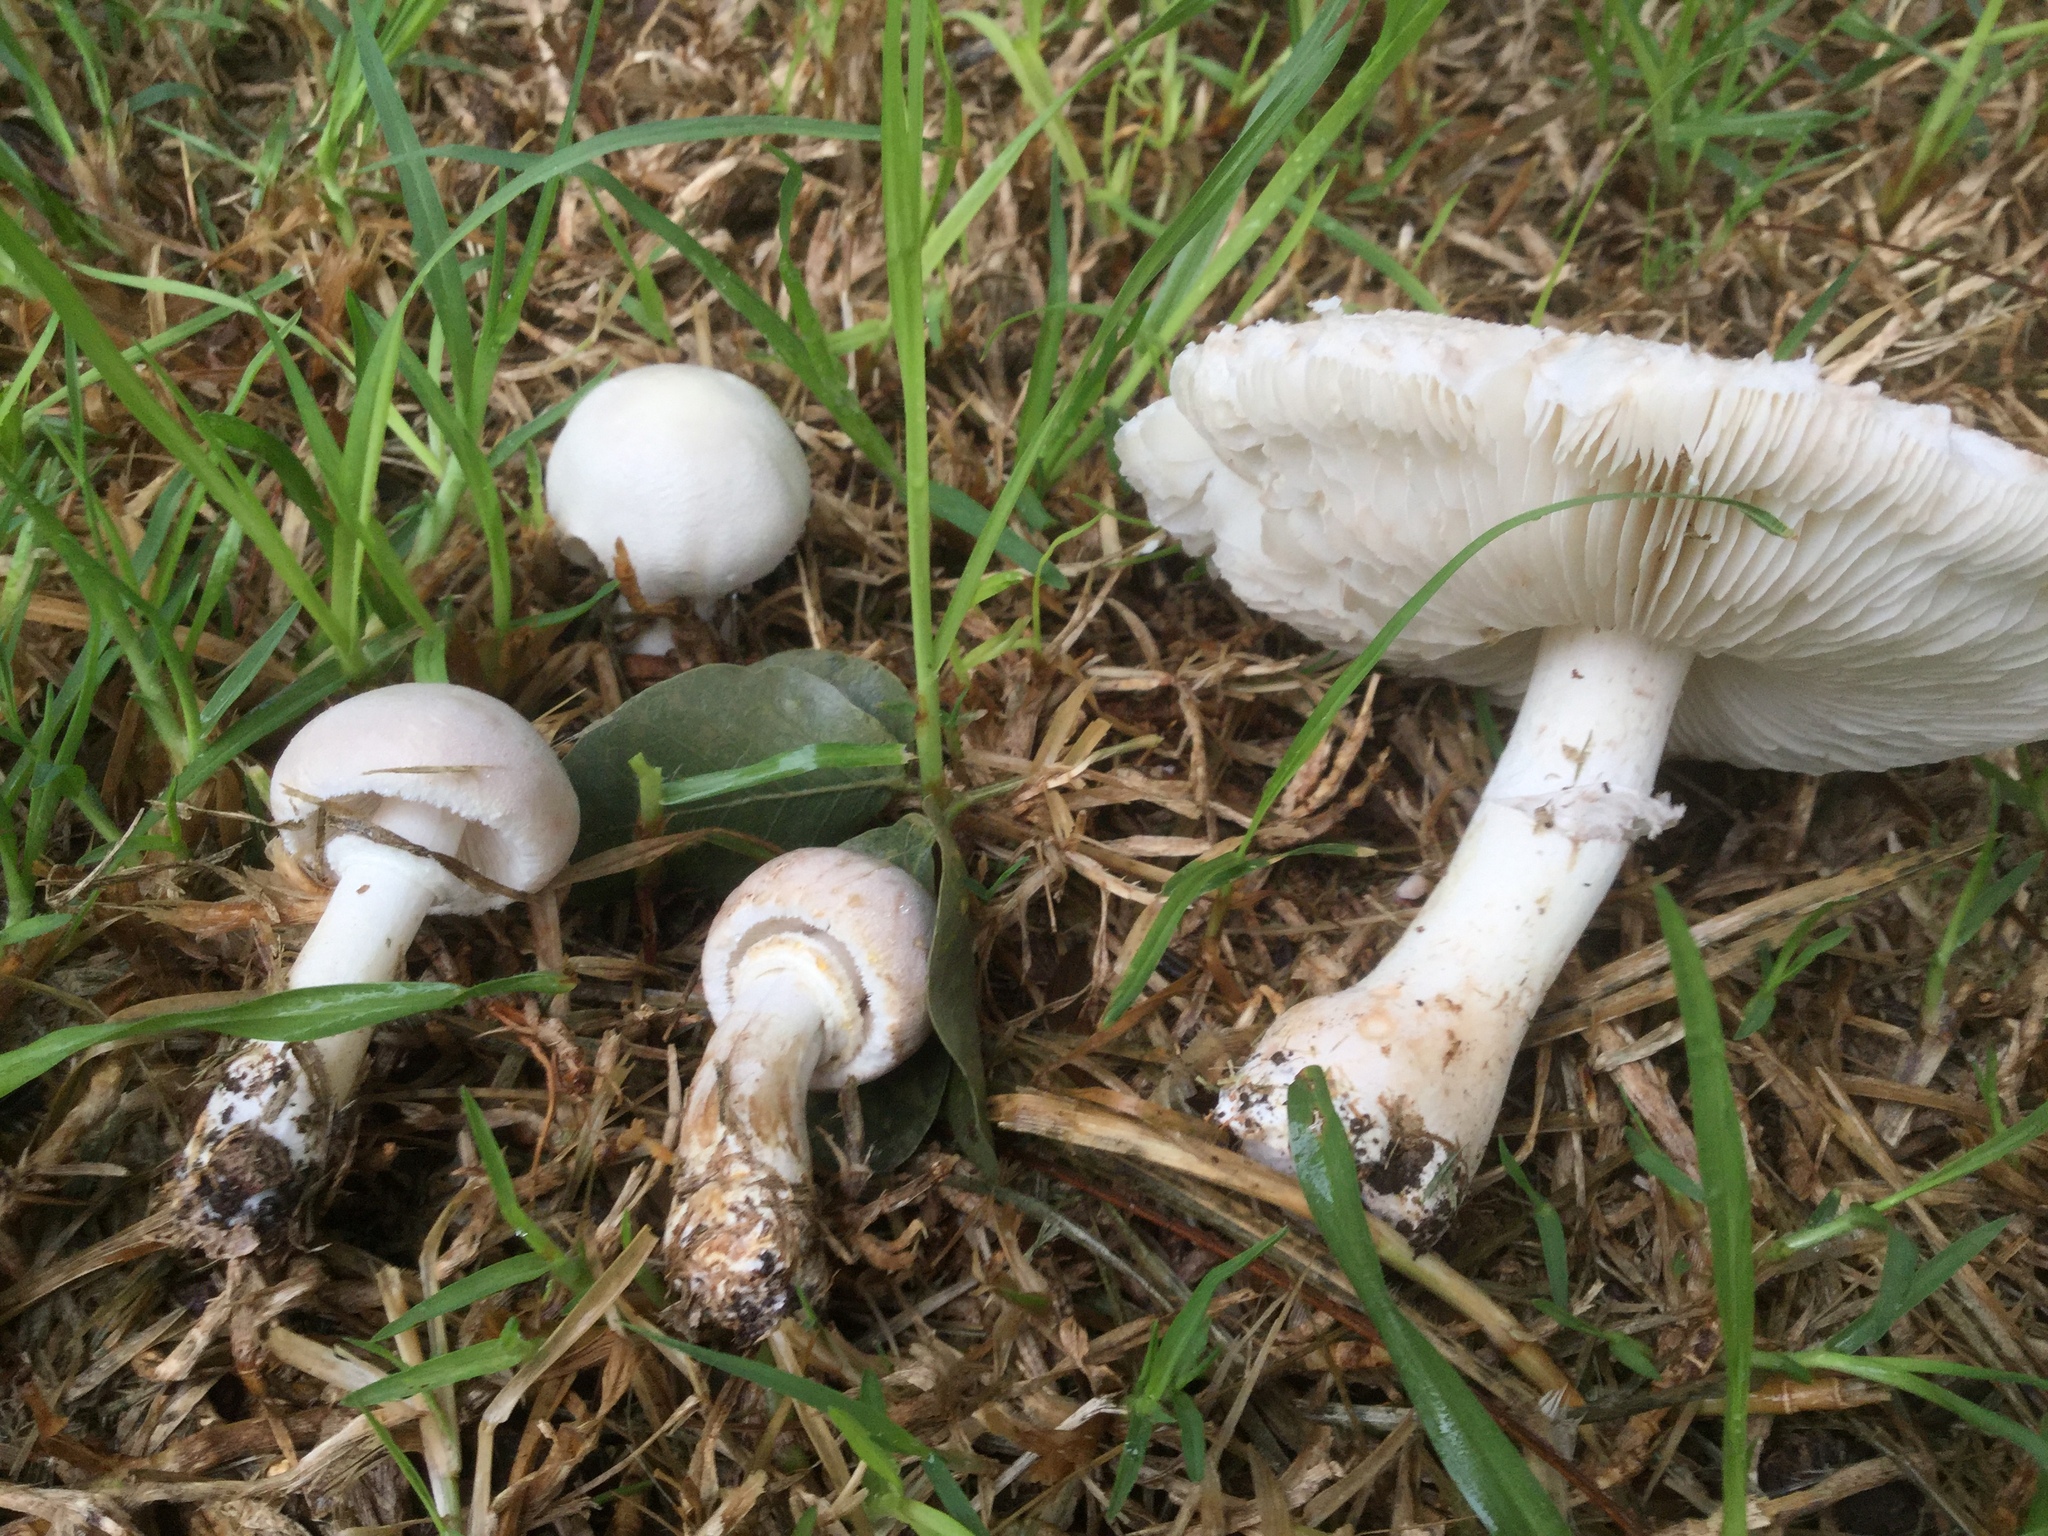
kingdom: Fungi
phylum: Basidiomycota
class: Agaricomycetes
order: Agaricales
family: Agaricaceae
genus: Leucoagaricus
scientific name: Leucoagaricus leucothites
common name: White dapperling
